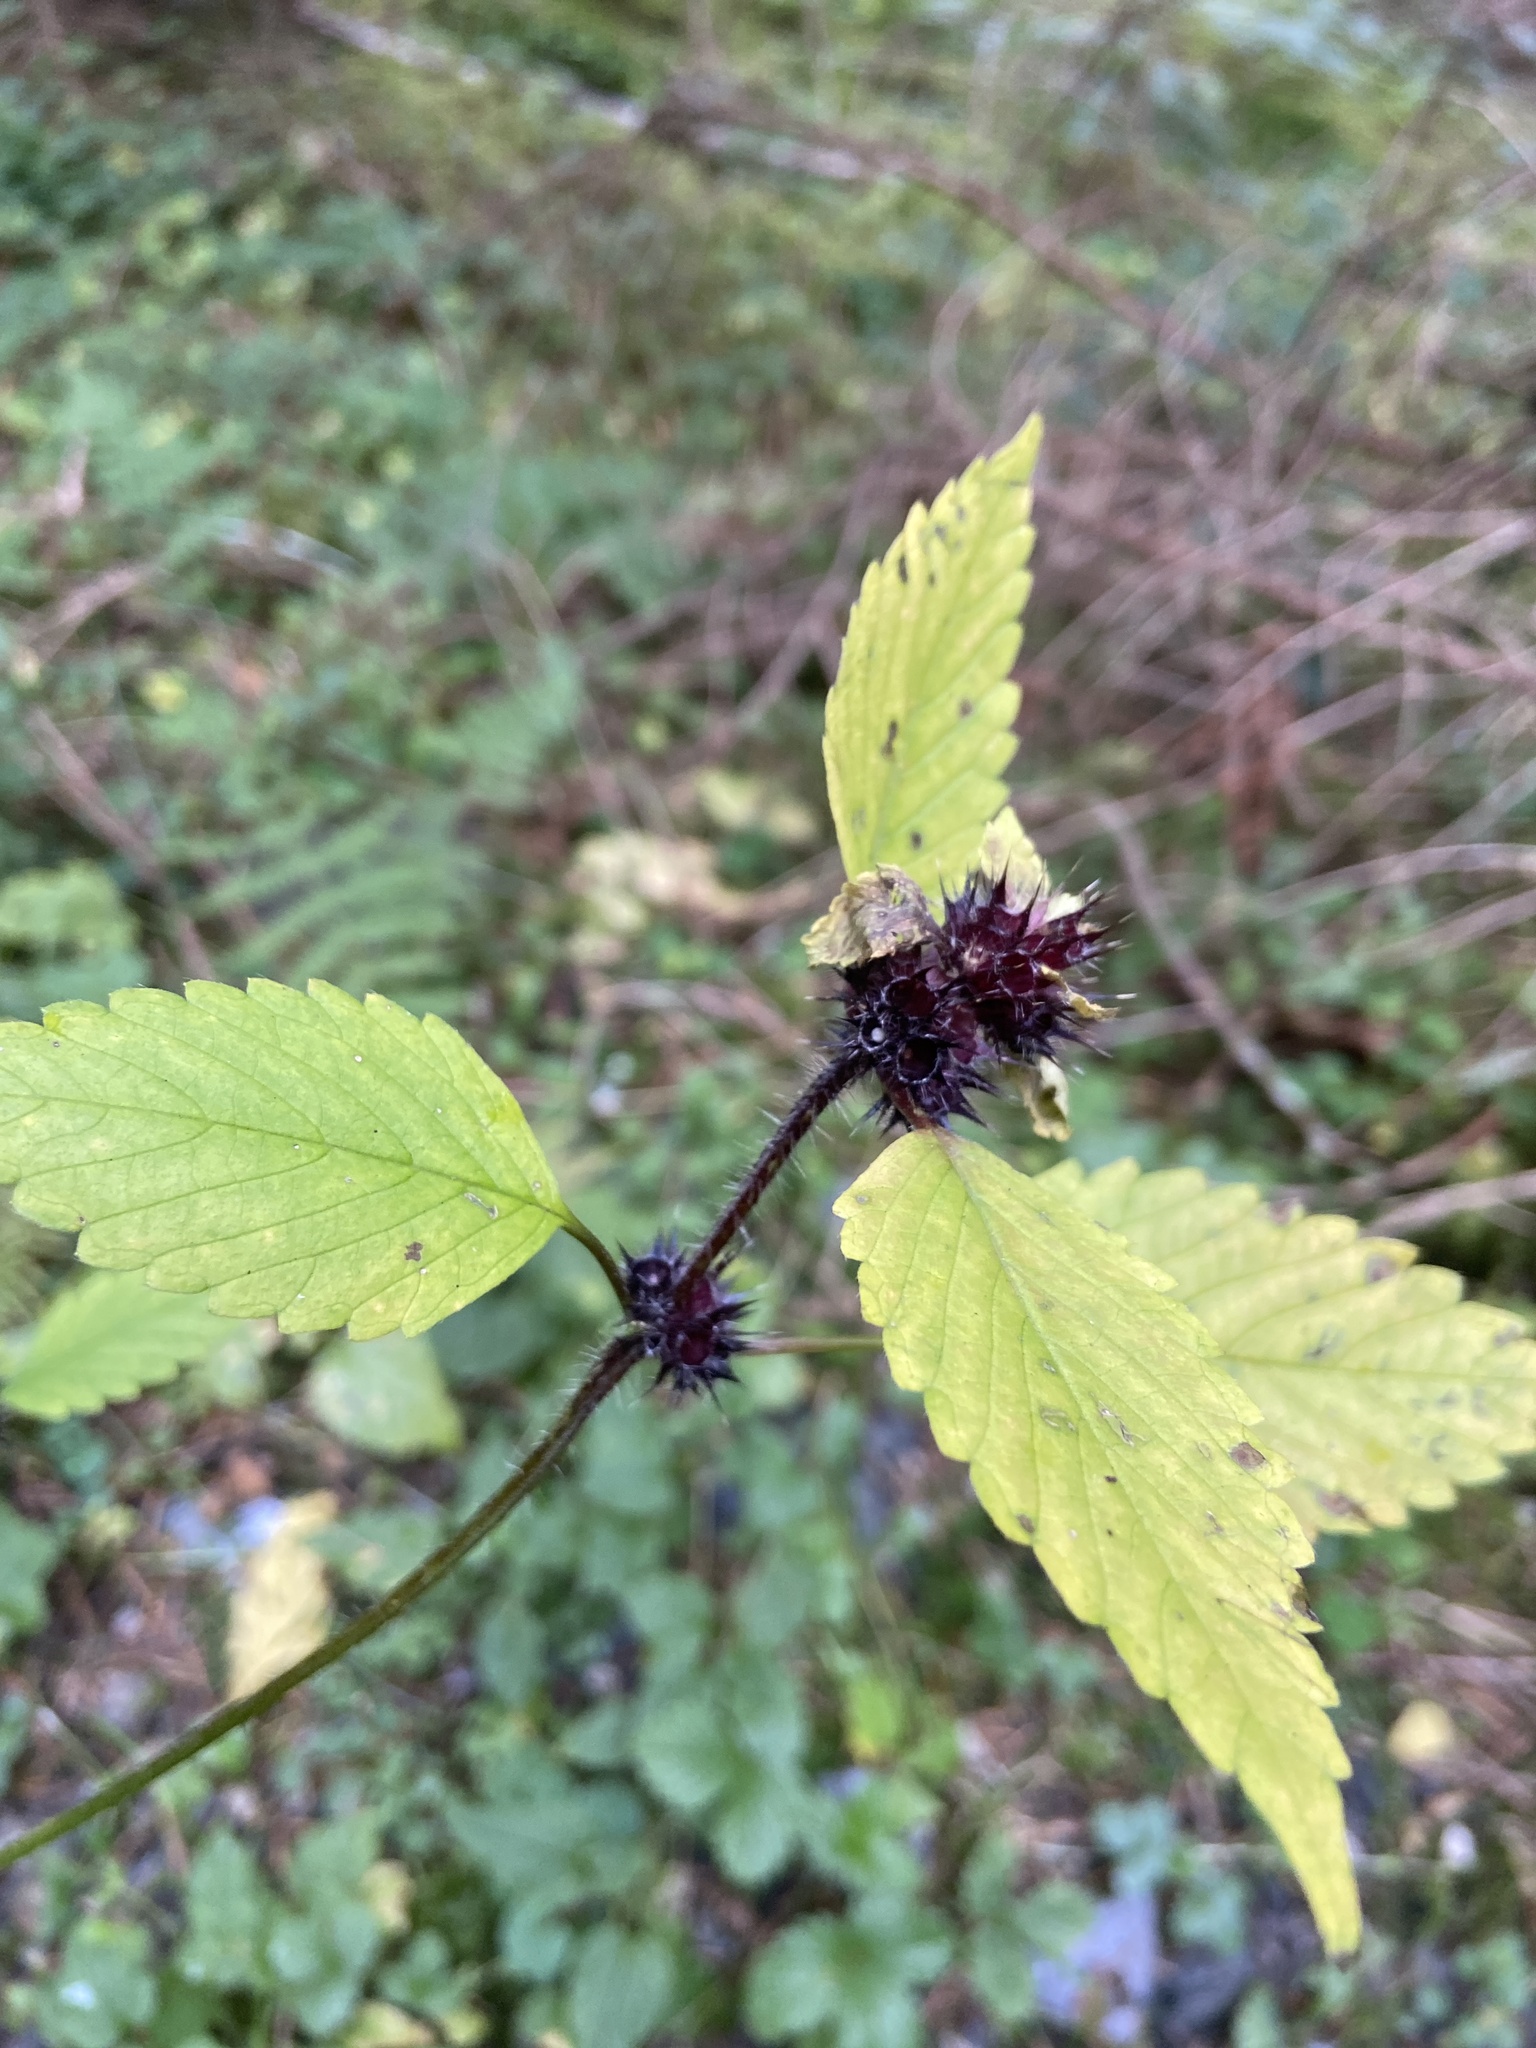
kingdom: Plantae
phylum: Tracheophyta
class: Magnoliopsida
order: Lamiales
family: Lamiaceae
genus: Galeopsis
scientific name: Galeopsis tetrahit
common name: Common hemp-nettle
